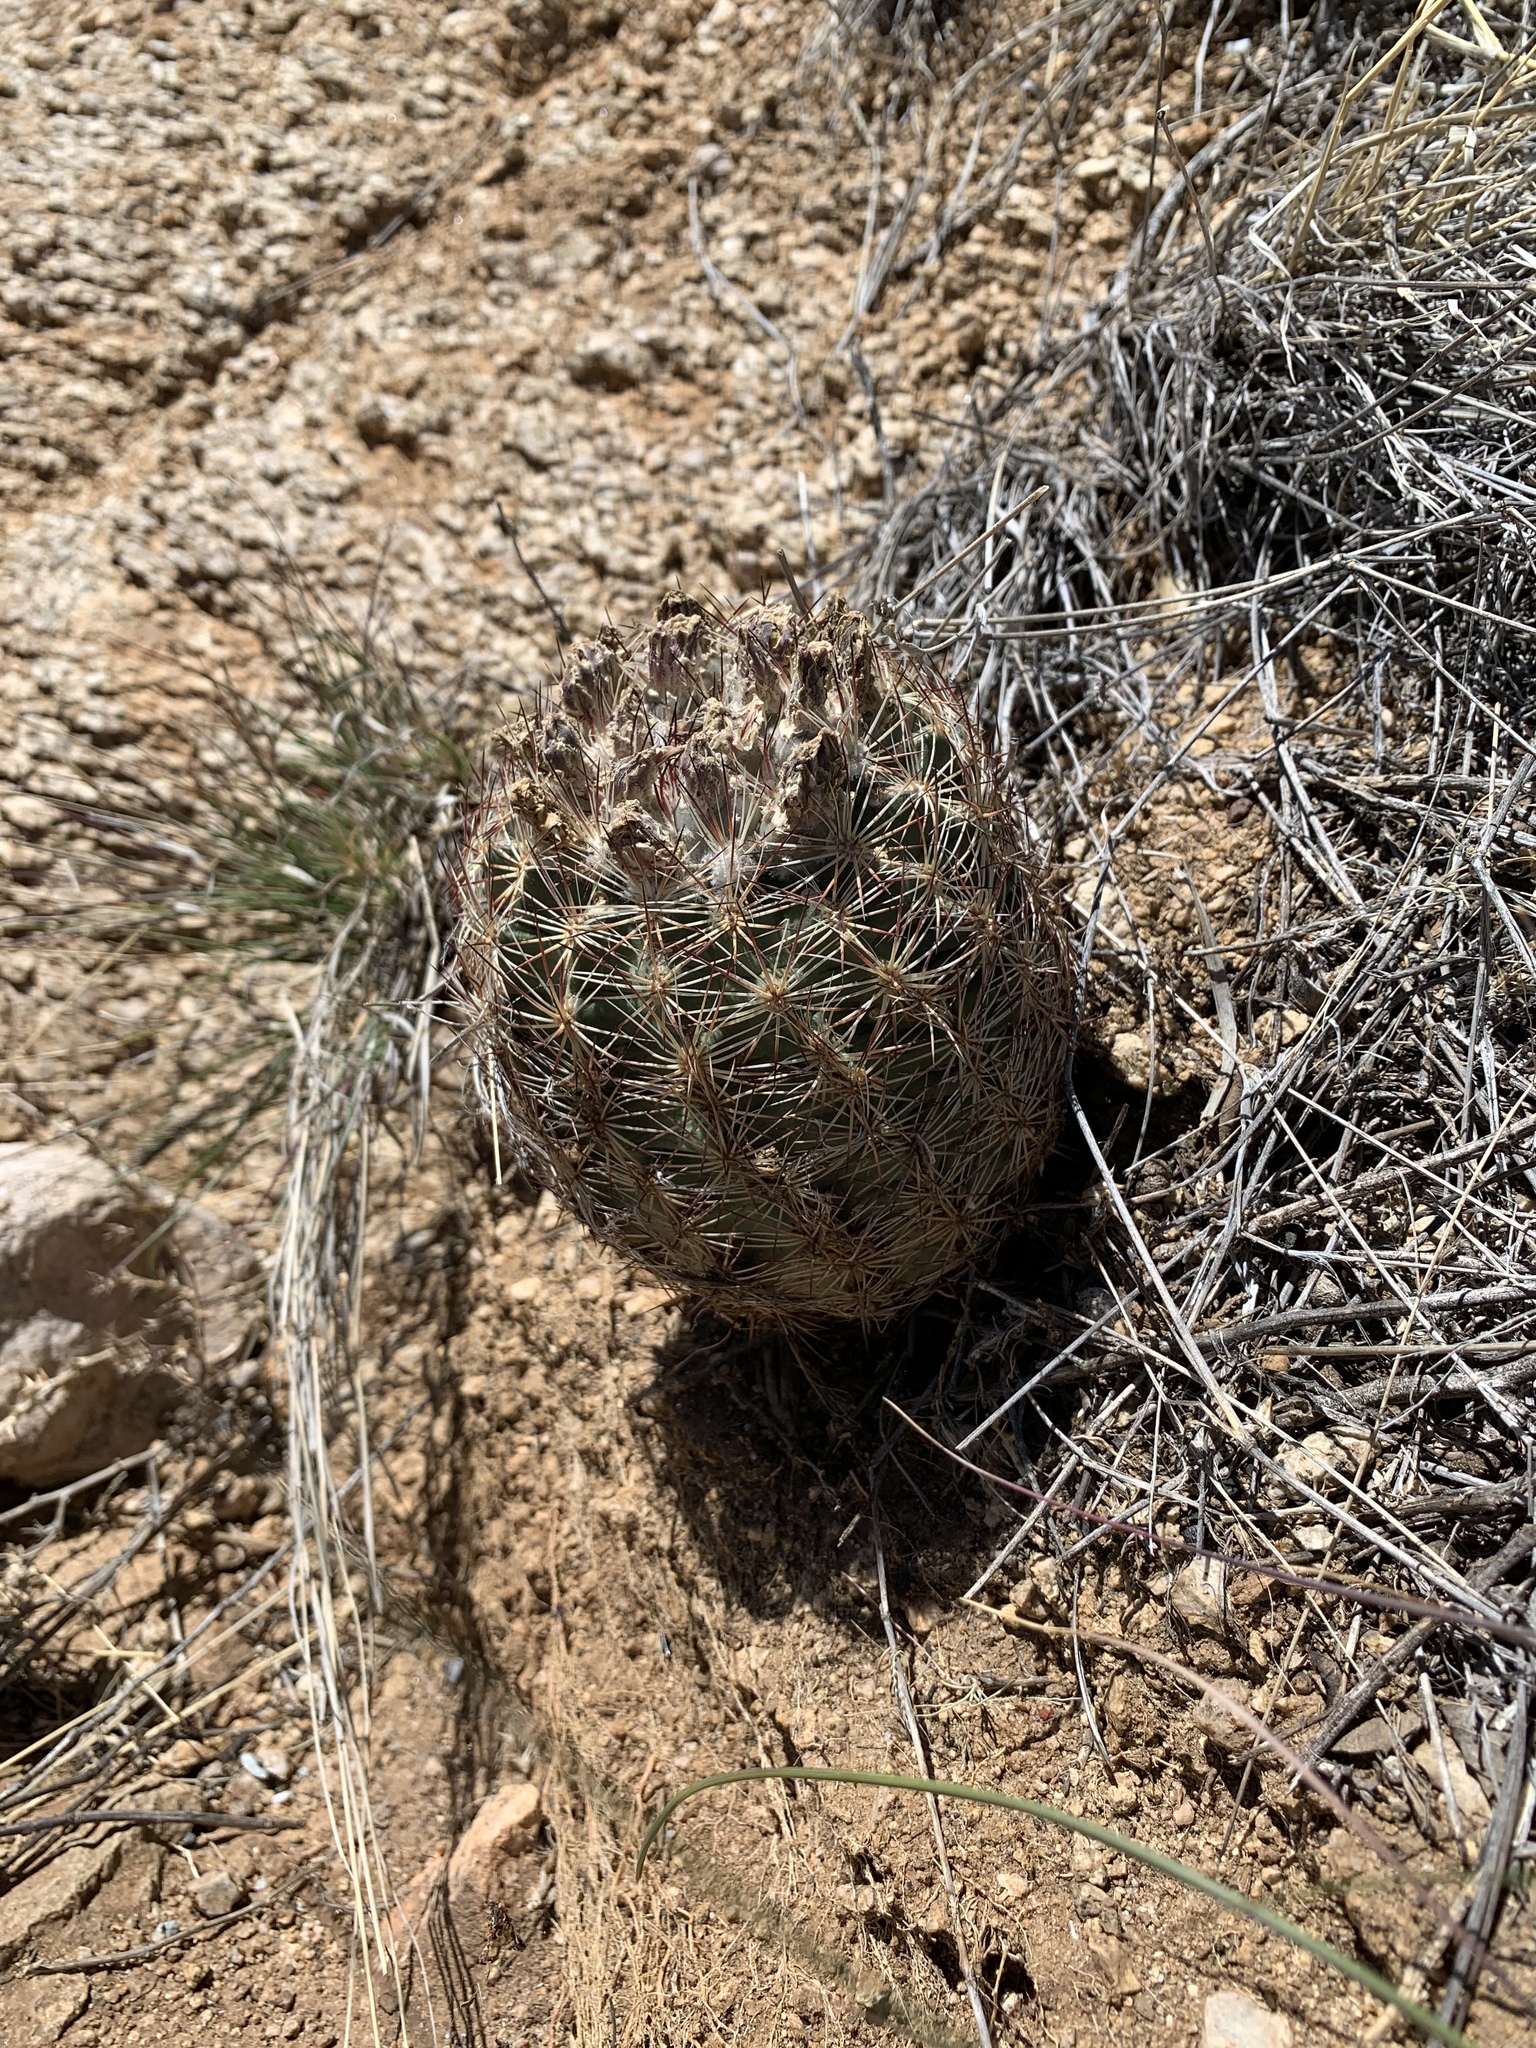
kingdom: Plantae
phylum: Tracheophyta
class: Magnoliopsida
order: Caryophyllales
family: Cactaceae
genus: Sclerocactus
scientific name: Sclerocactus intertextus
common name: White fish-hook cactus
